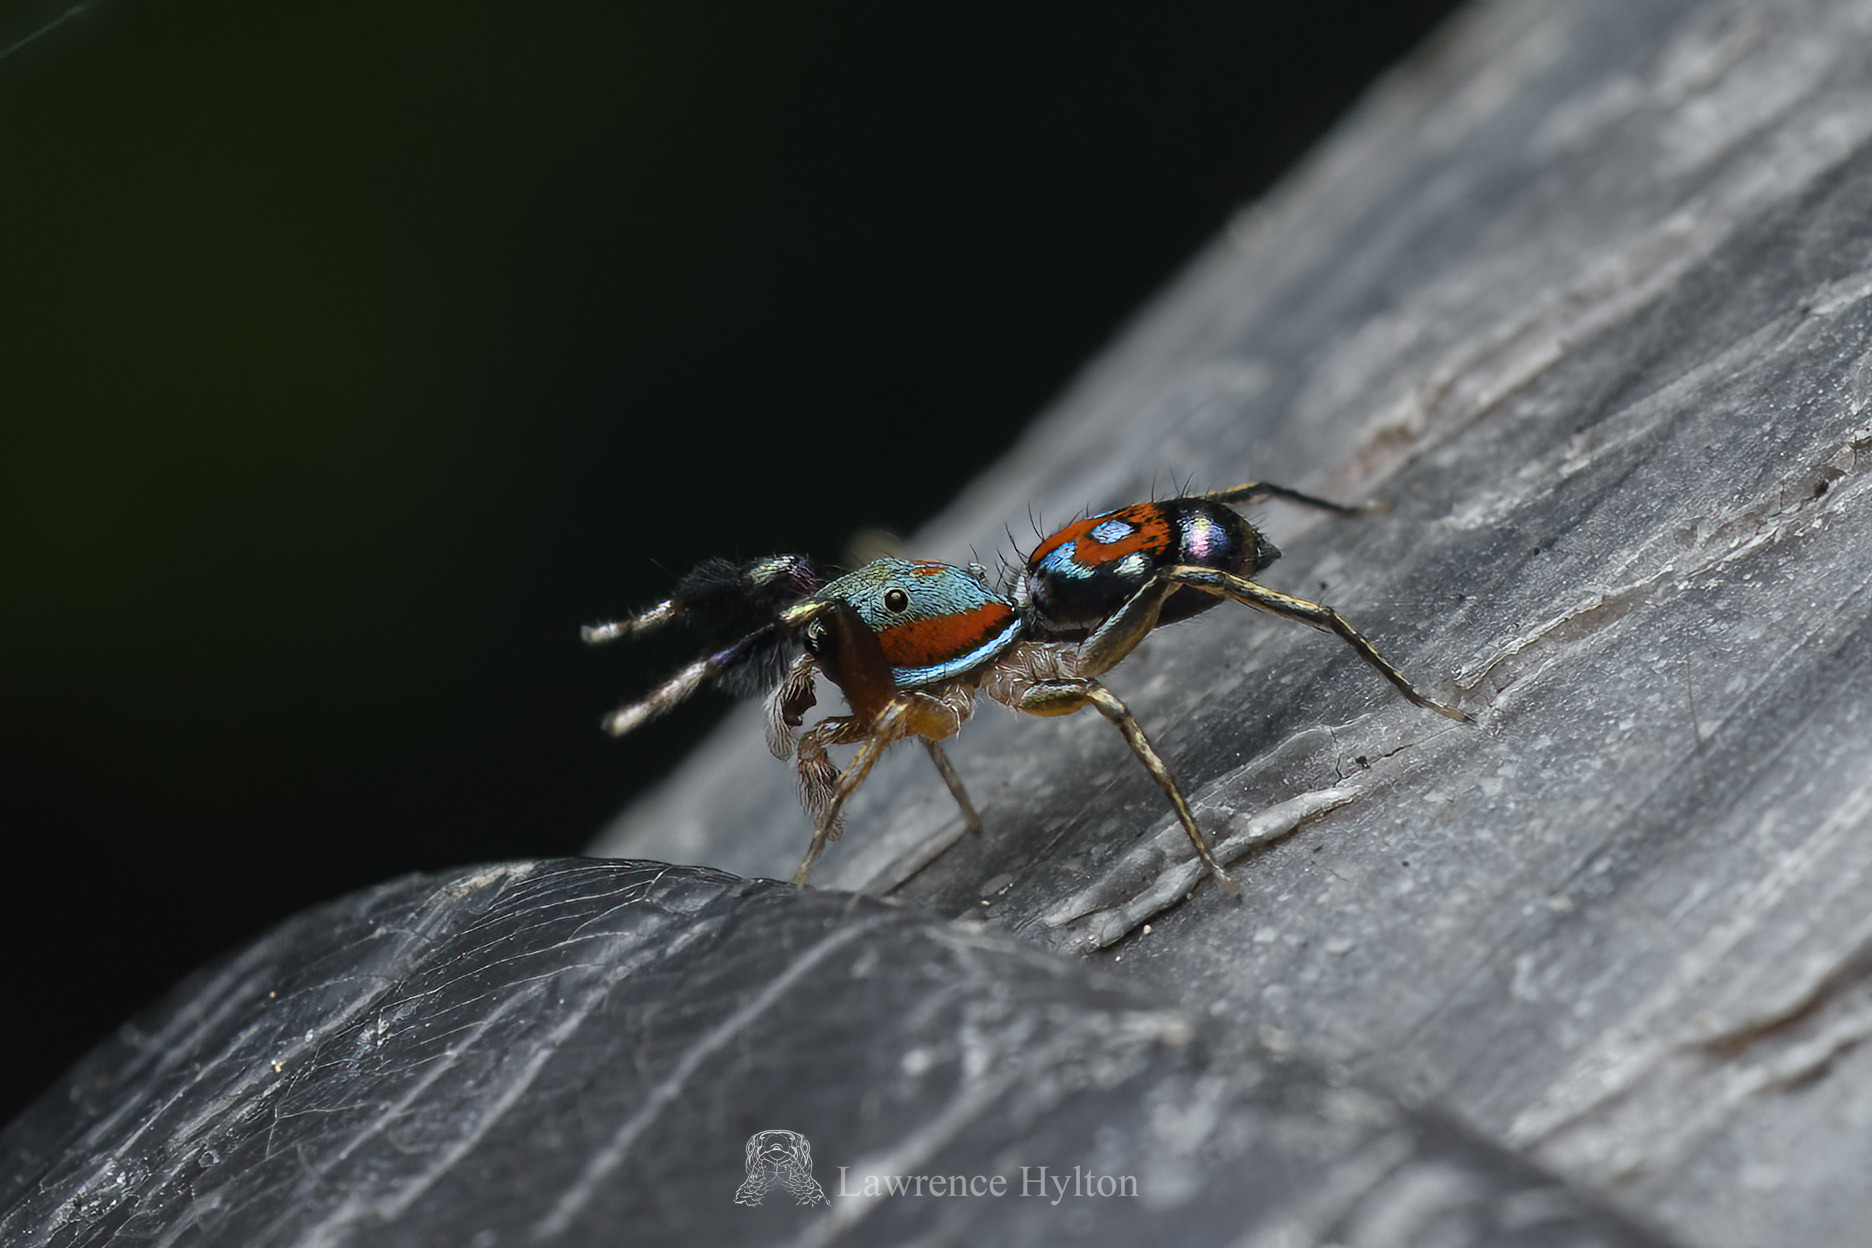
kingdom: Animalia
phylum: Arthropoda
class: Arachnida
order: Araneae
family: Salticidae
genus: Siler
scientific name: Siler collingwoodi
